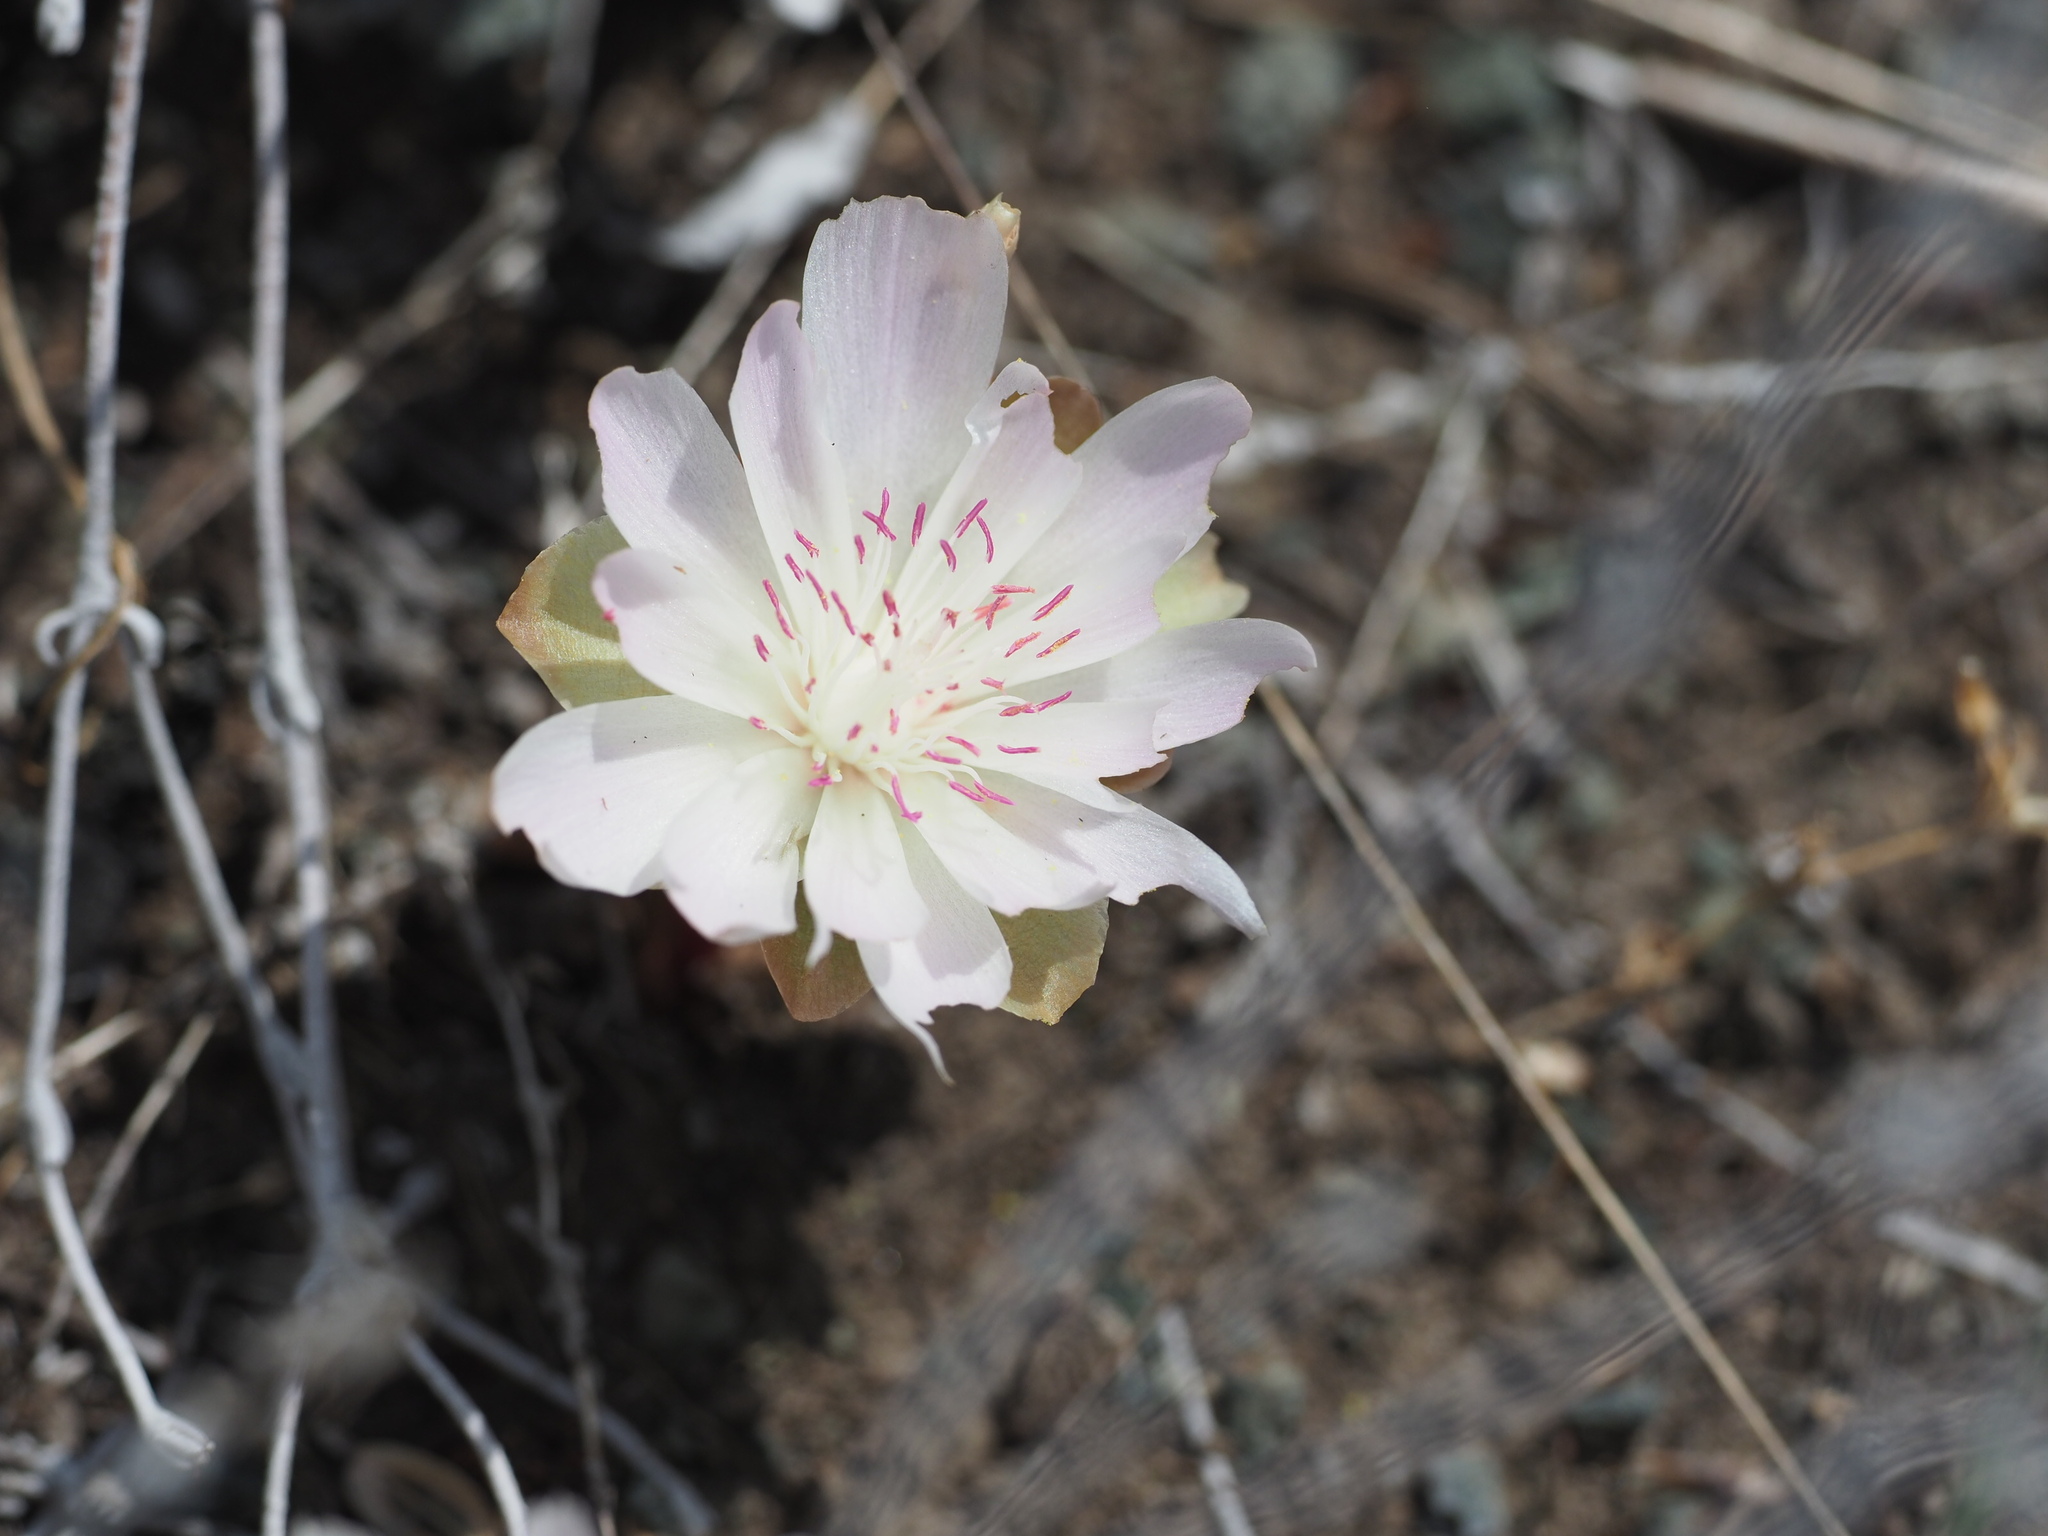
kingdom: Plantae
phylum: Tracheophyta
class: Magnoliopsida
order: Caryophyllales
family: Montiaceae
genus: Lewisia
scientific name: Lewisia rediviva
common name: Bitter-root
